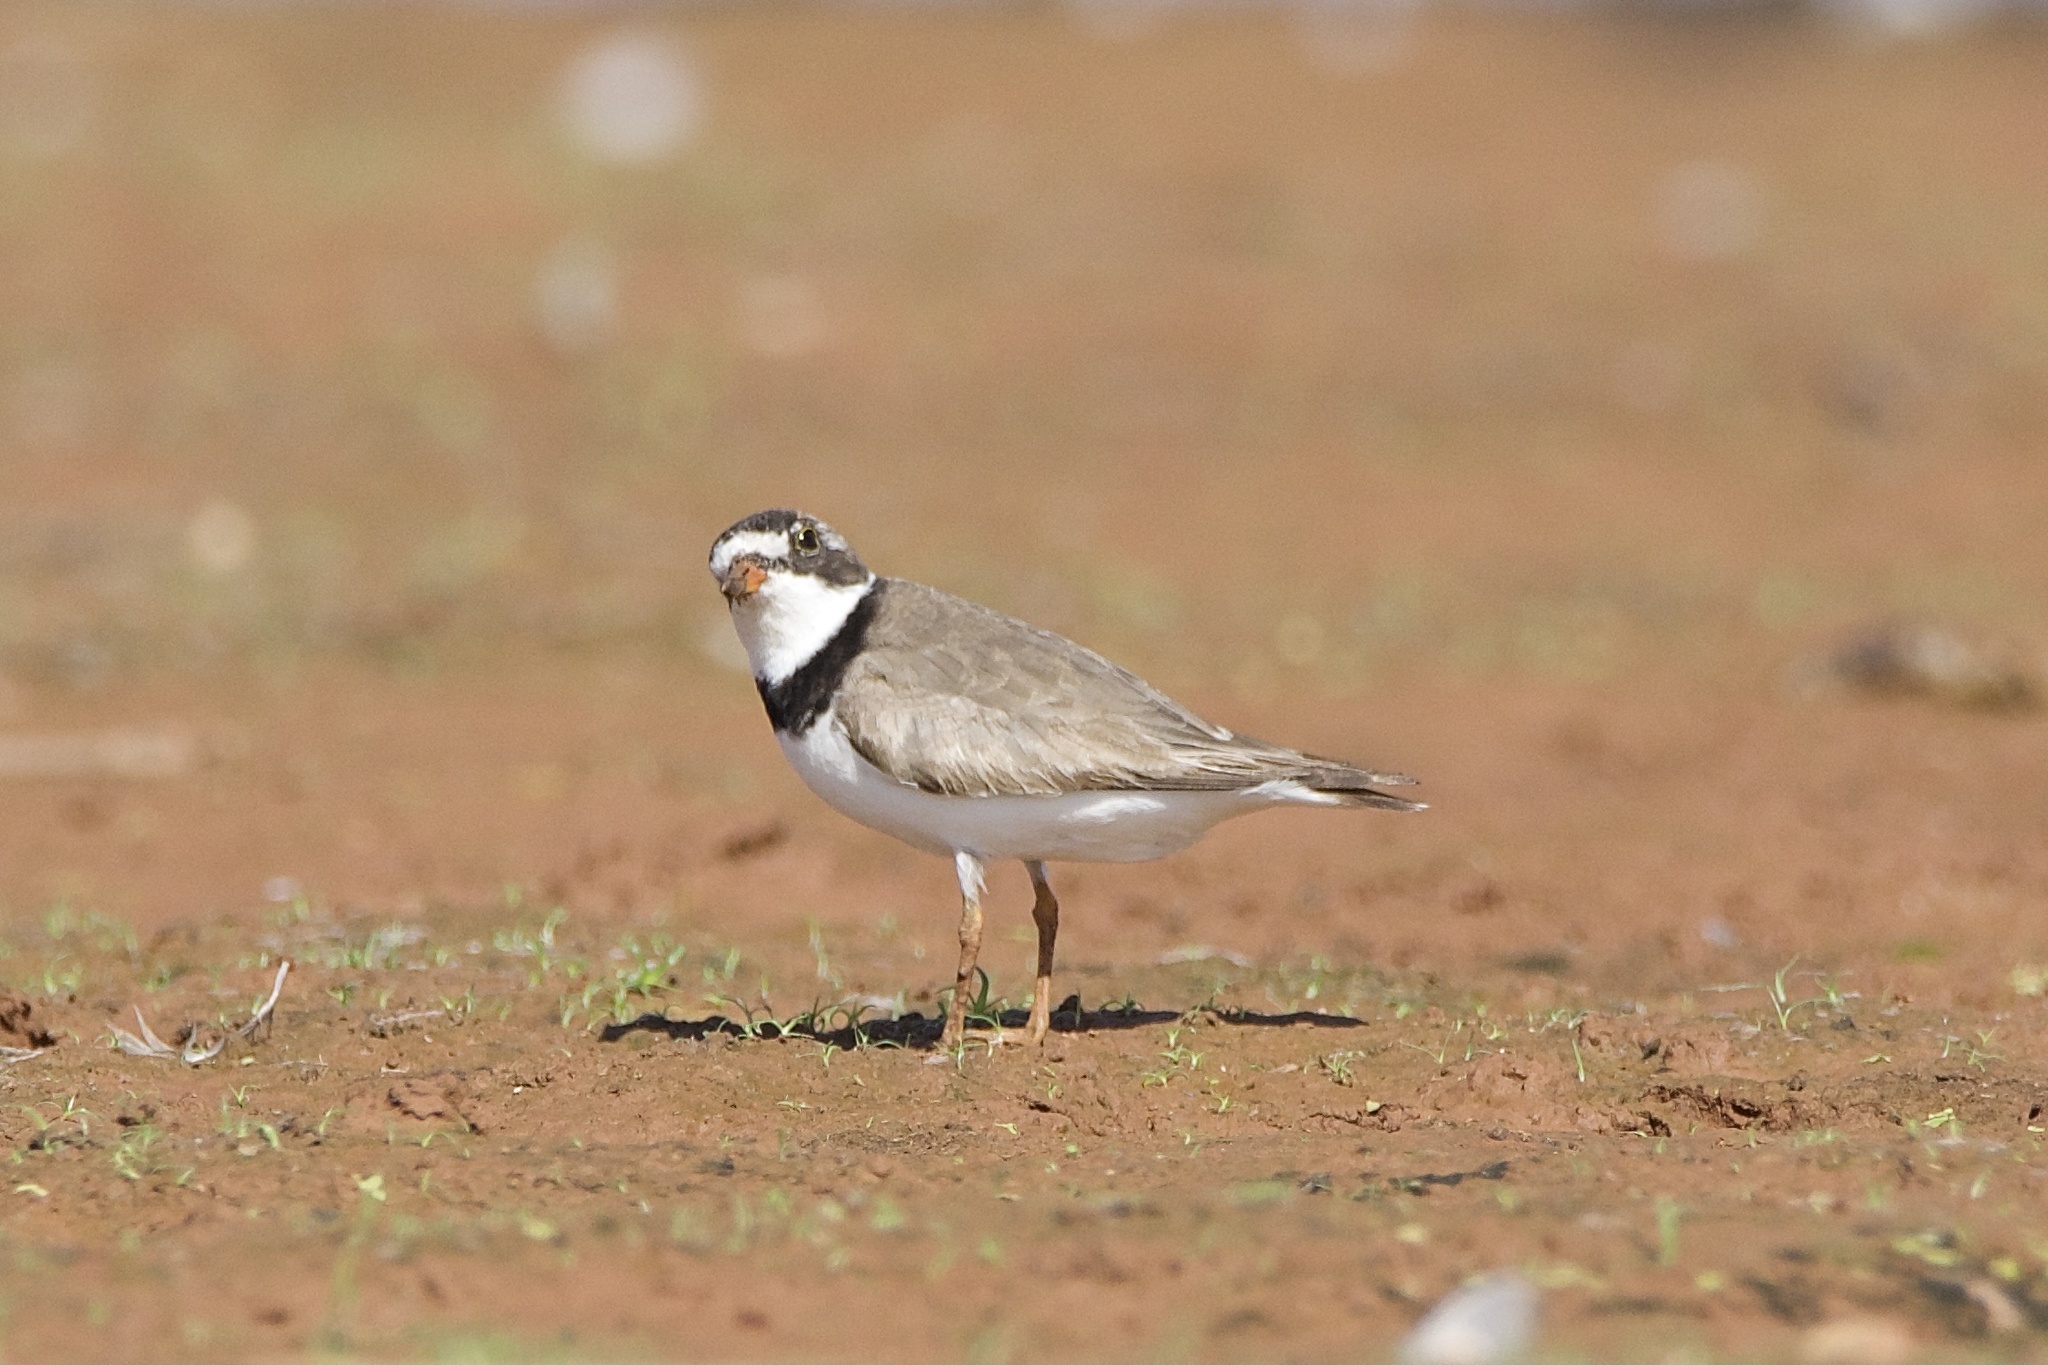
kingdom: Animalia
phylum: Chordata
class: Aves
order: Charadriiformes
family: Charadriidae
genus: Charadrius
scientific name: Charadrius semipalmatus
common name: Semipalmated plover
